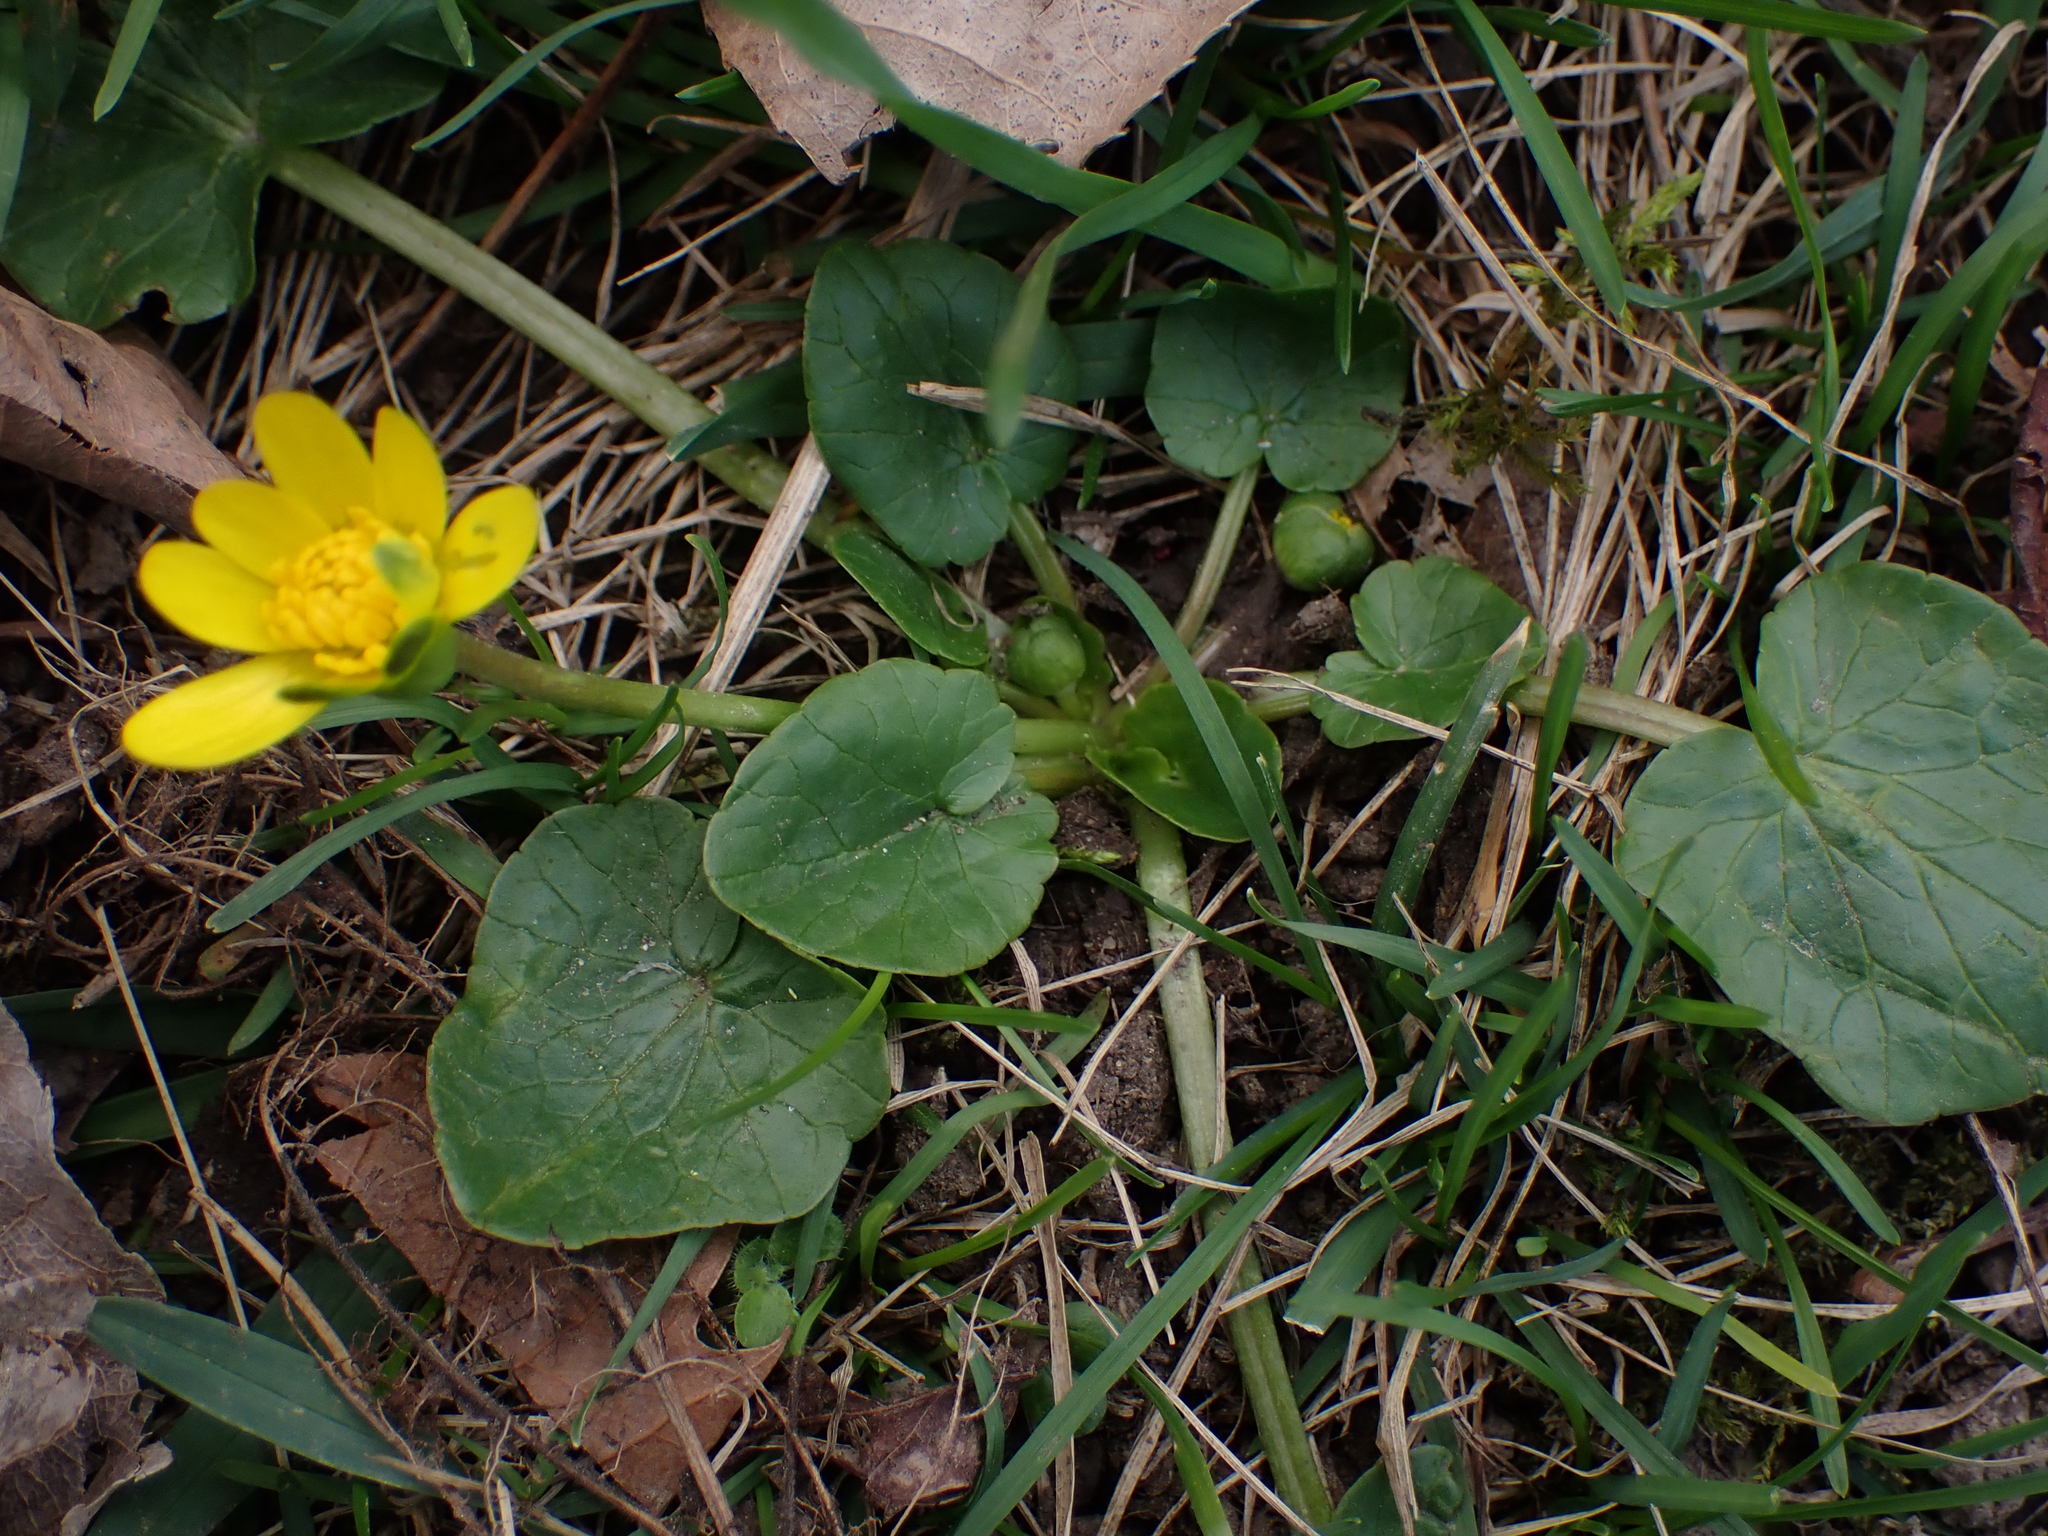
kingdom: Plantae
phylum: Tracheophyta
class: Magnoliopsida
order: Ranunculales
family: Ranunculaceae
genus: Ficaria
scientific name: Ficaria verna
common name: Lesser celandine
